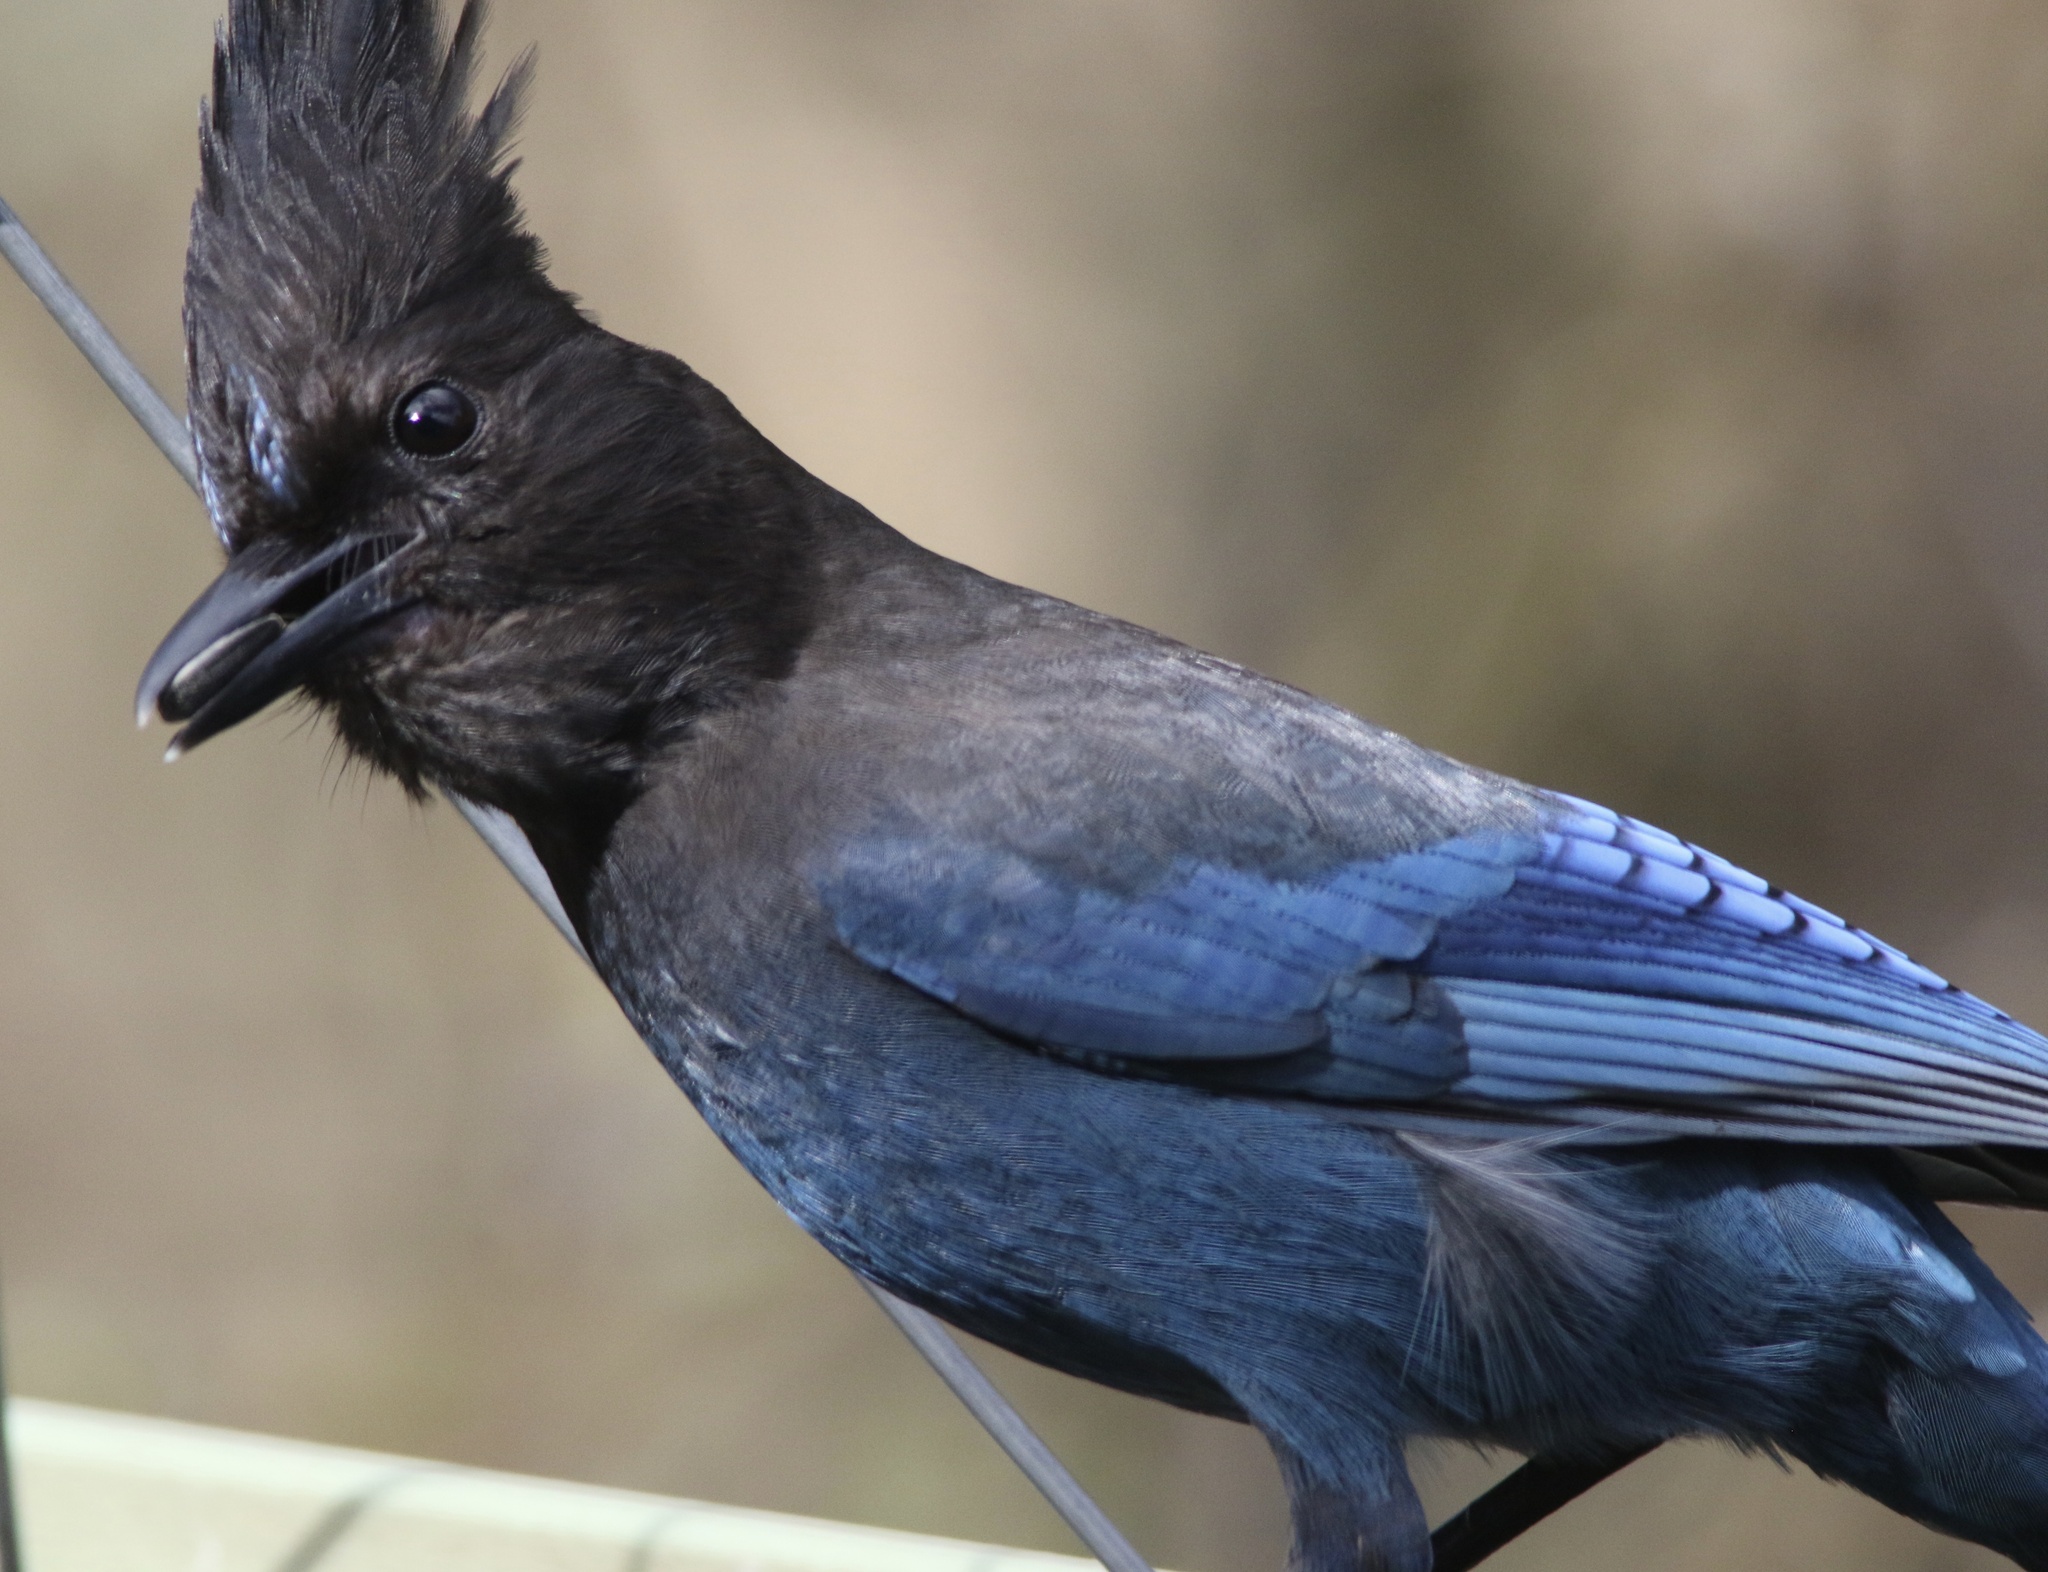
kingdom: Animalia
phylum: Chordata
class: Aves
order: Passeriformes
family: Corvidae
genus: Cyanocitta
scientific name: Cyanocitta stelleri
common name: Steller's jay
